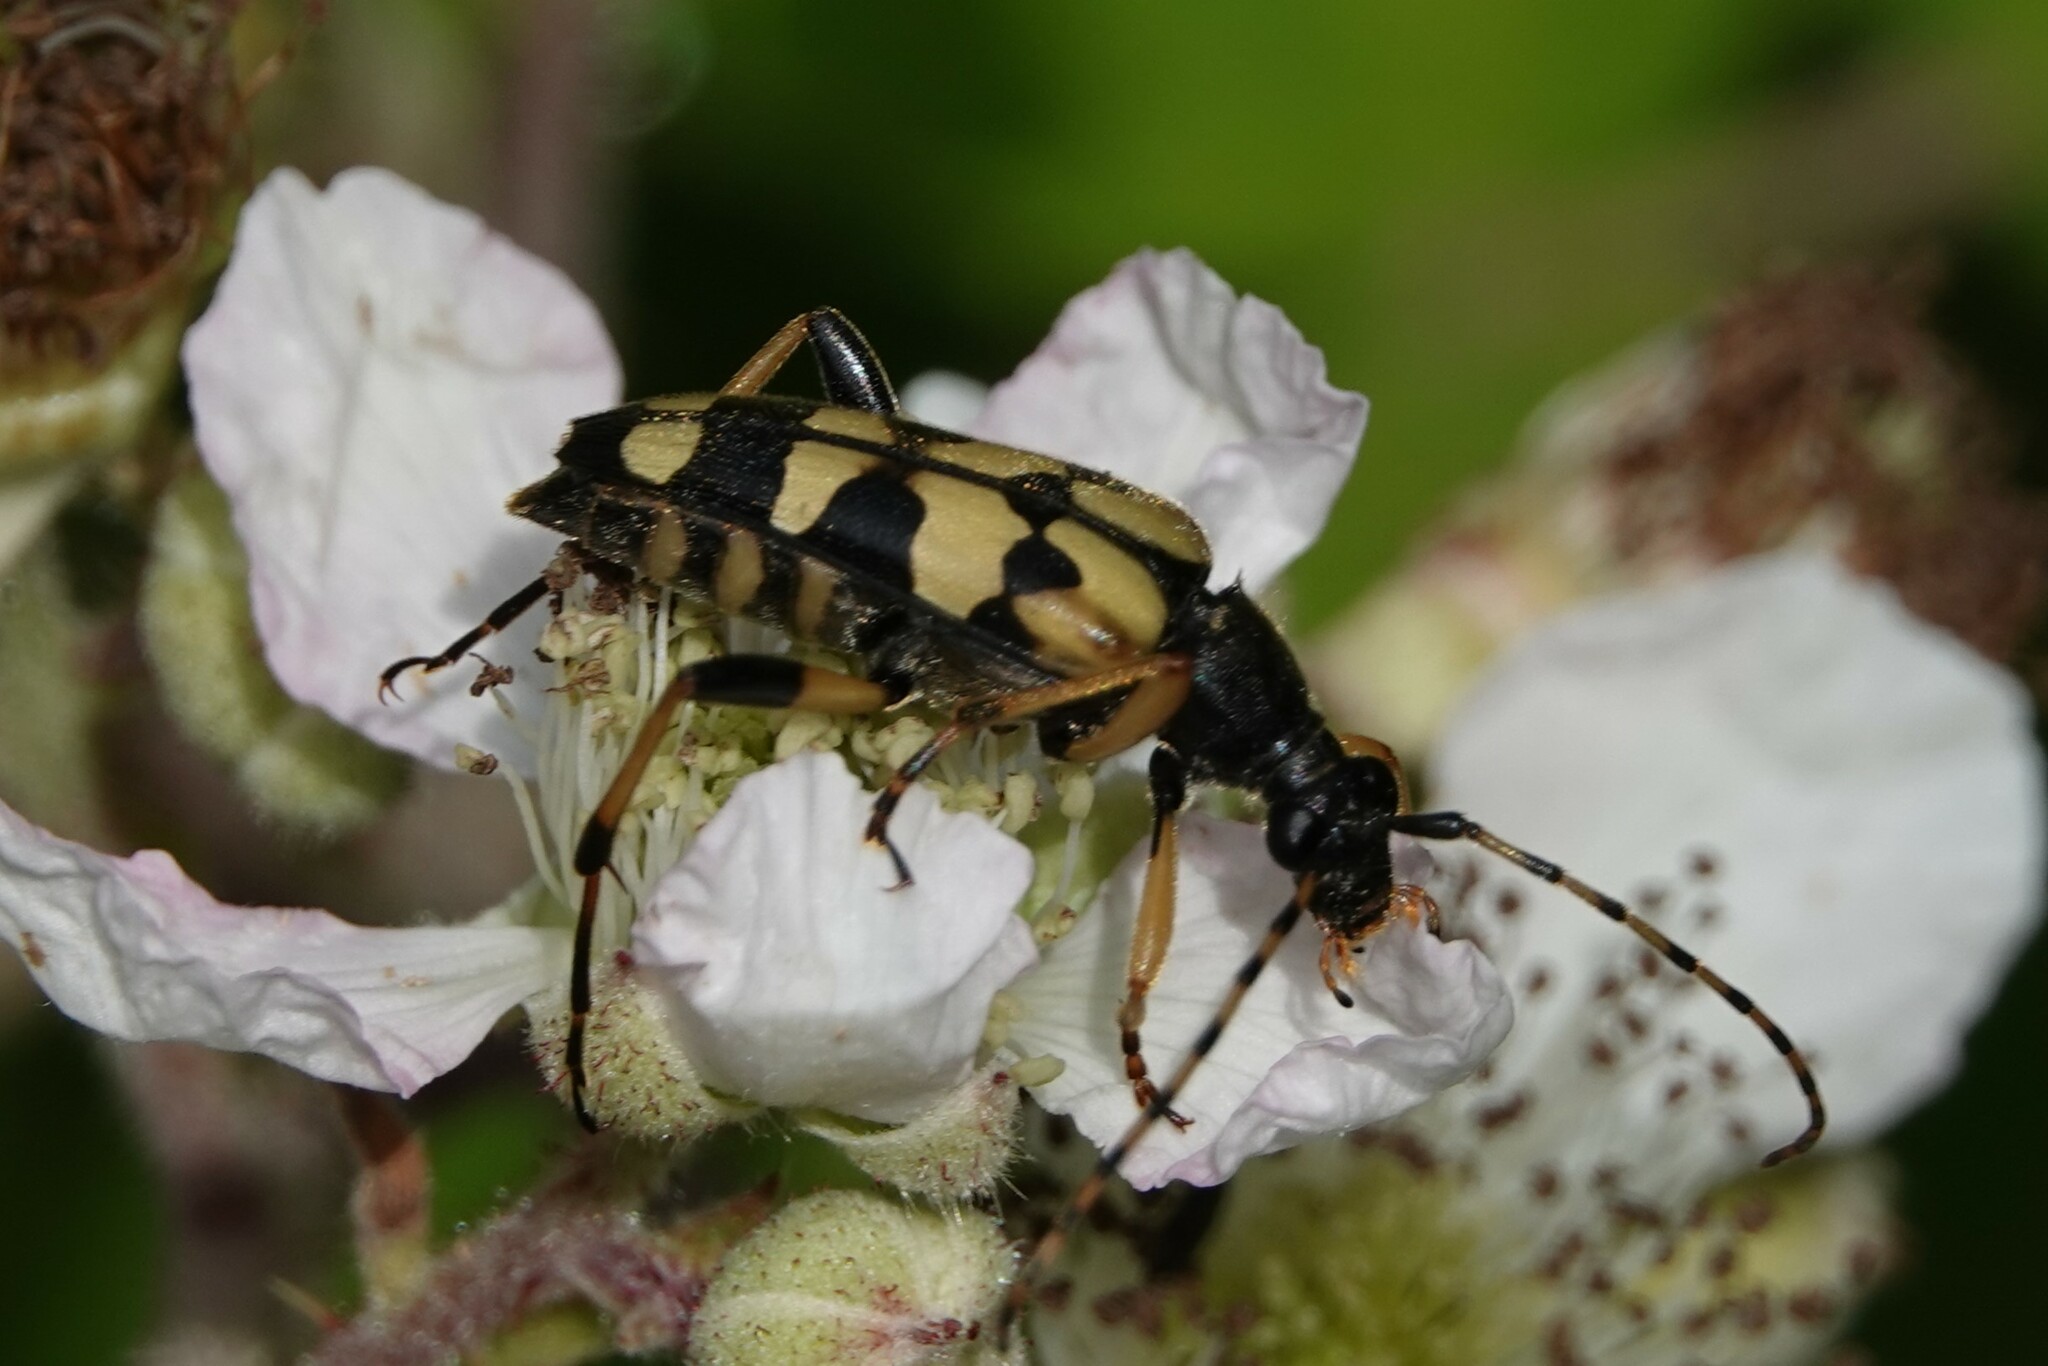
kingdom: Animalia
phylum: Arthropoda
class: Insecta
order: Coleoptera
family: Cerambycidae
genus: Rutpela
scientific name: Rutpela maculata
